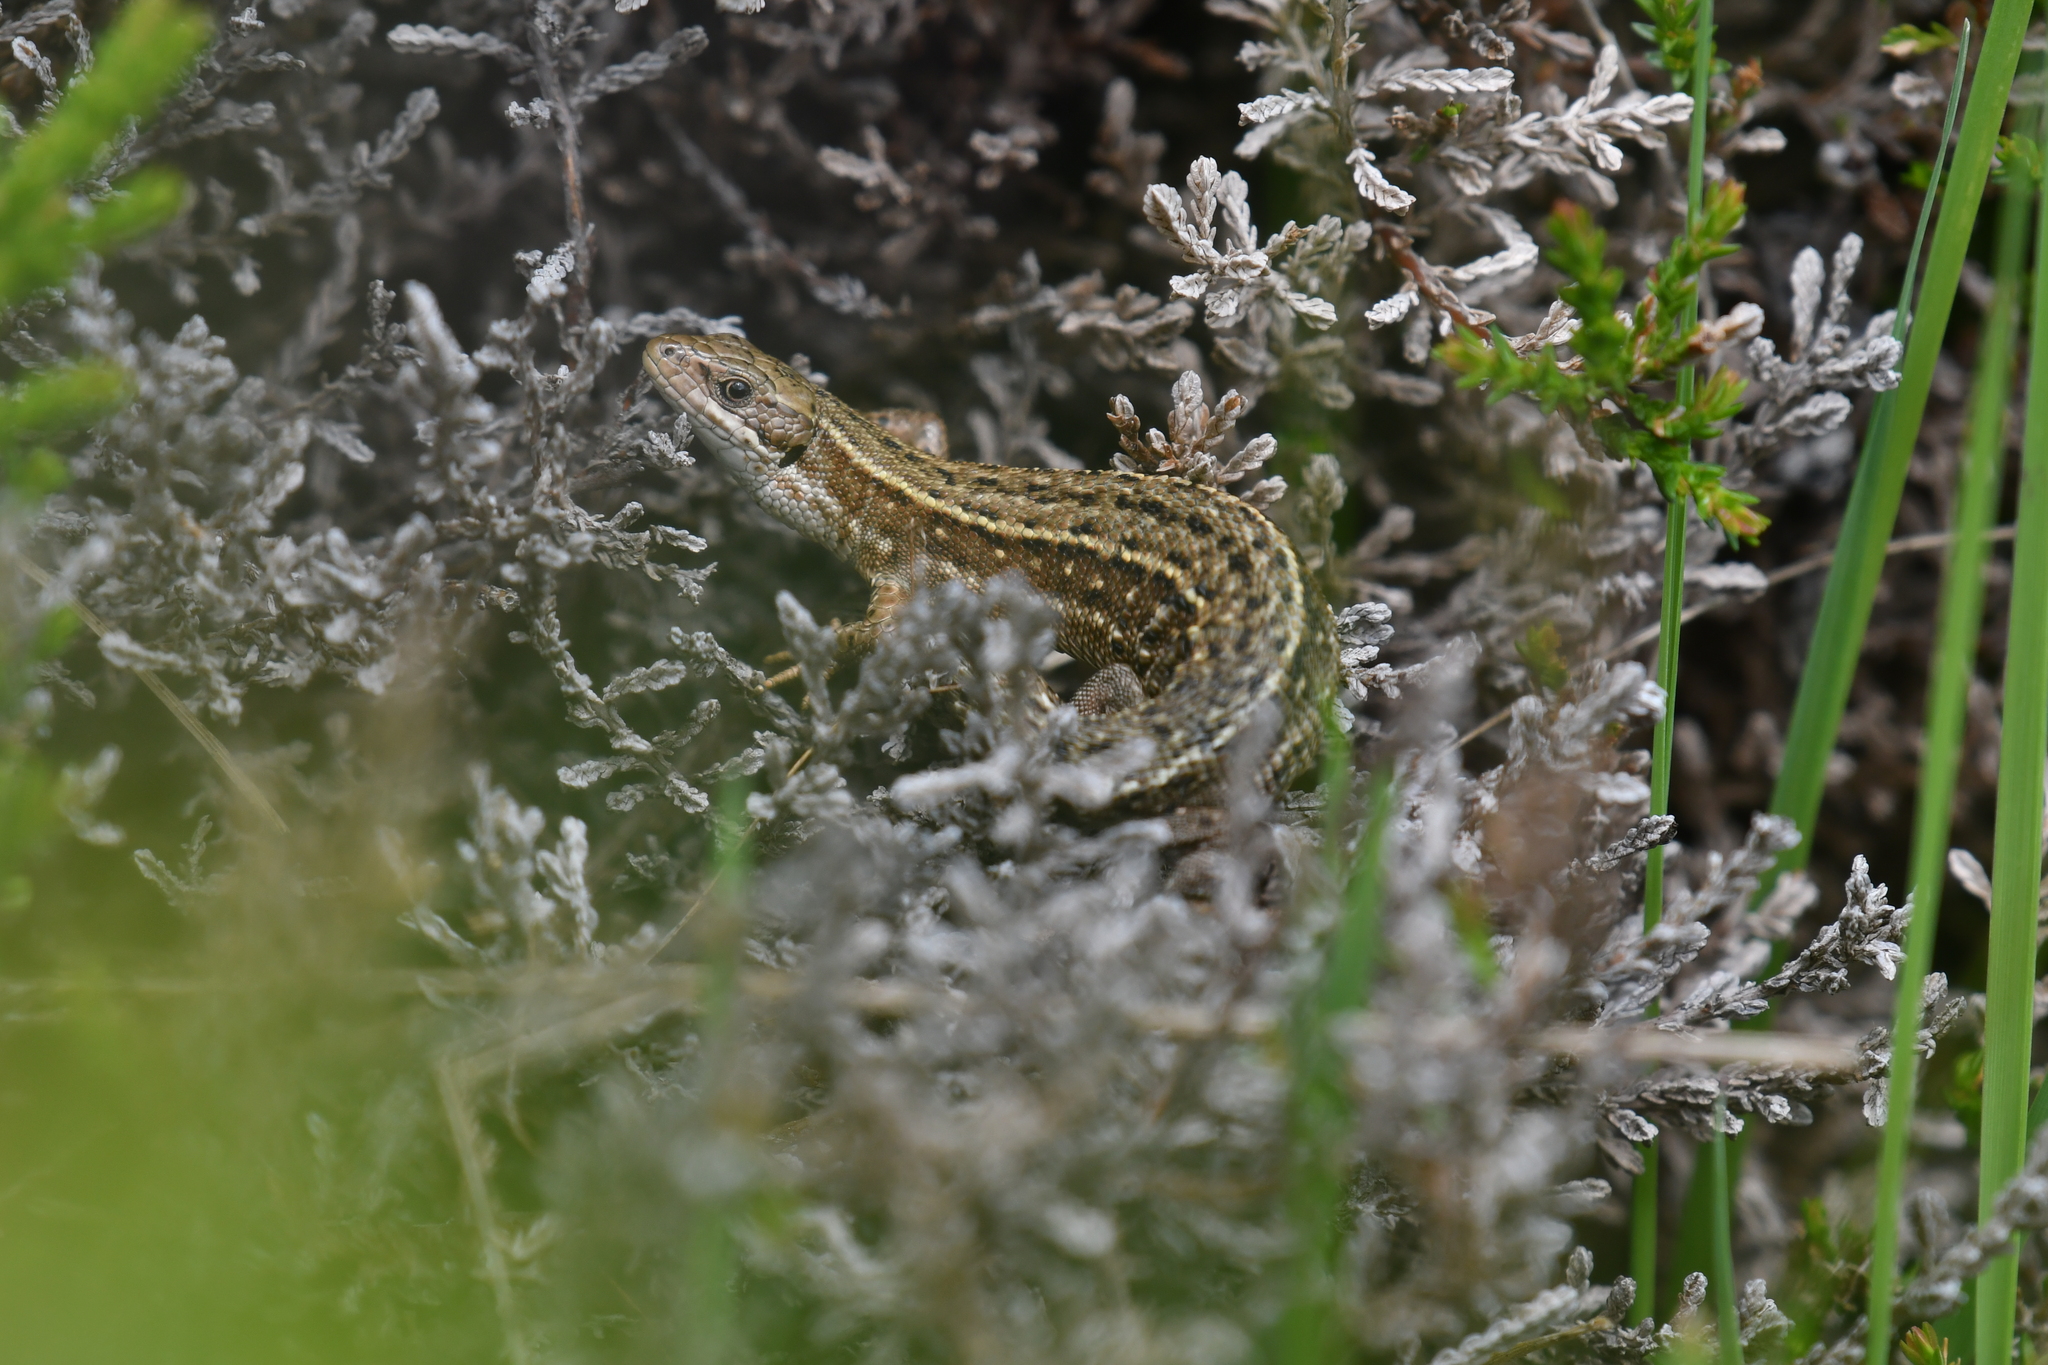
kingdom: Animalia
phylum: Chordata
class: Squamata
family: Lacertidae
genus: Zootoca
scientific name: Zootoca vivipara
